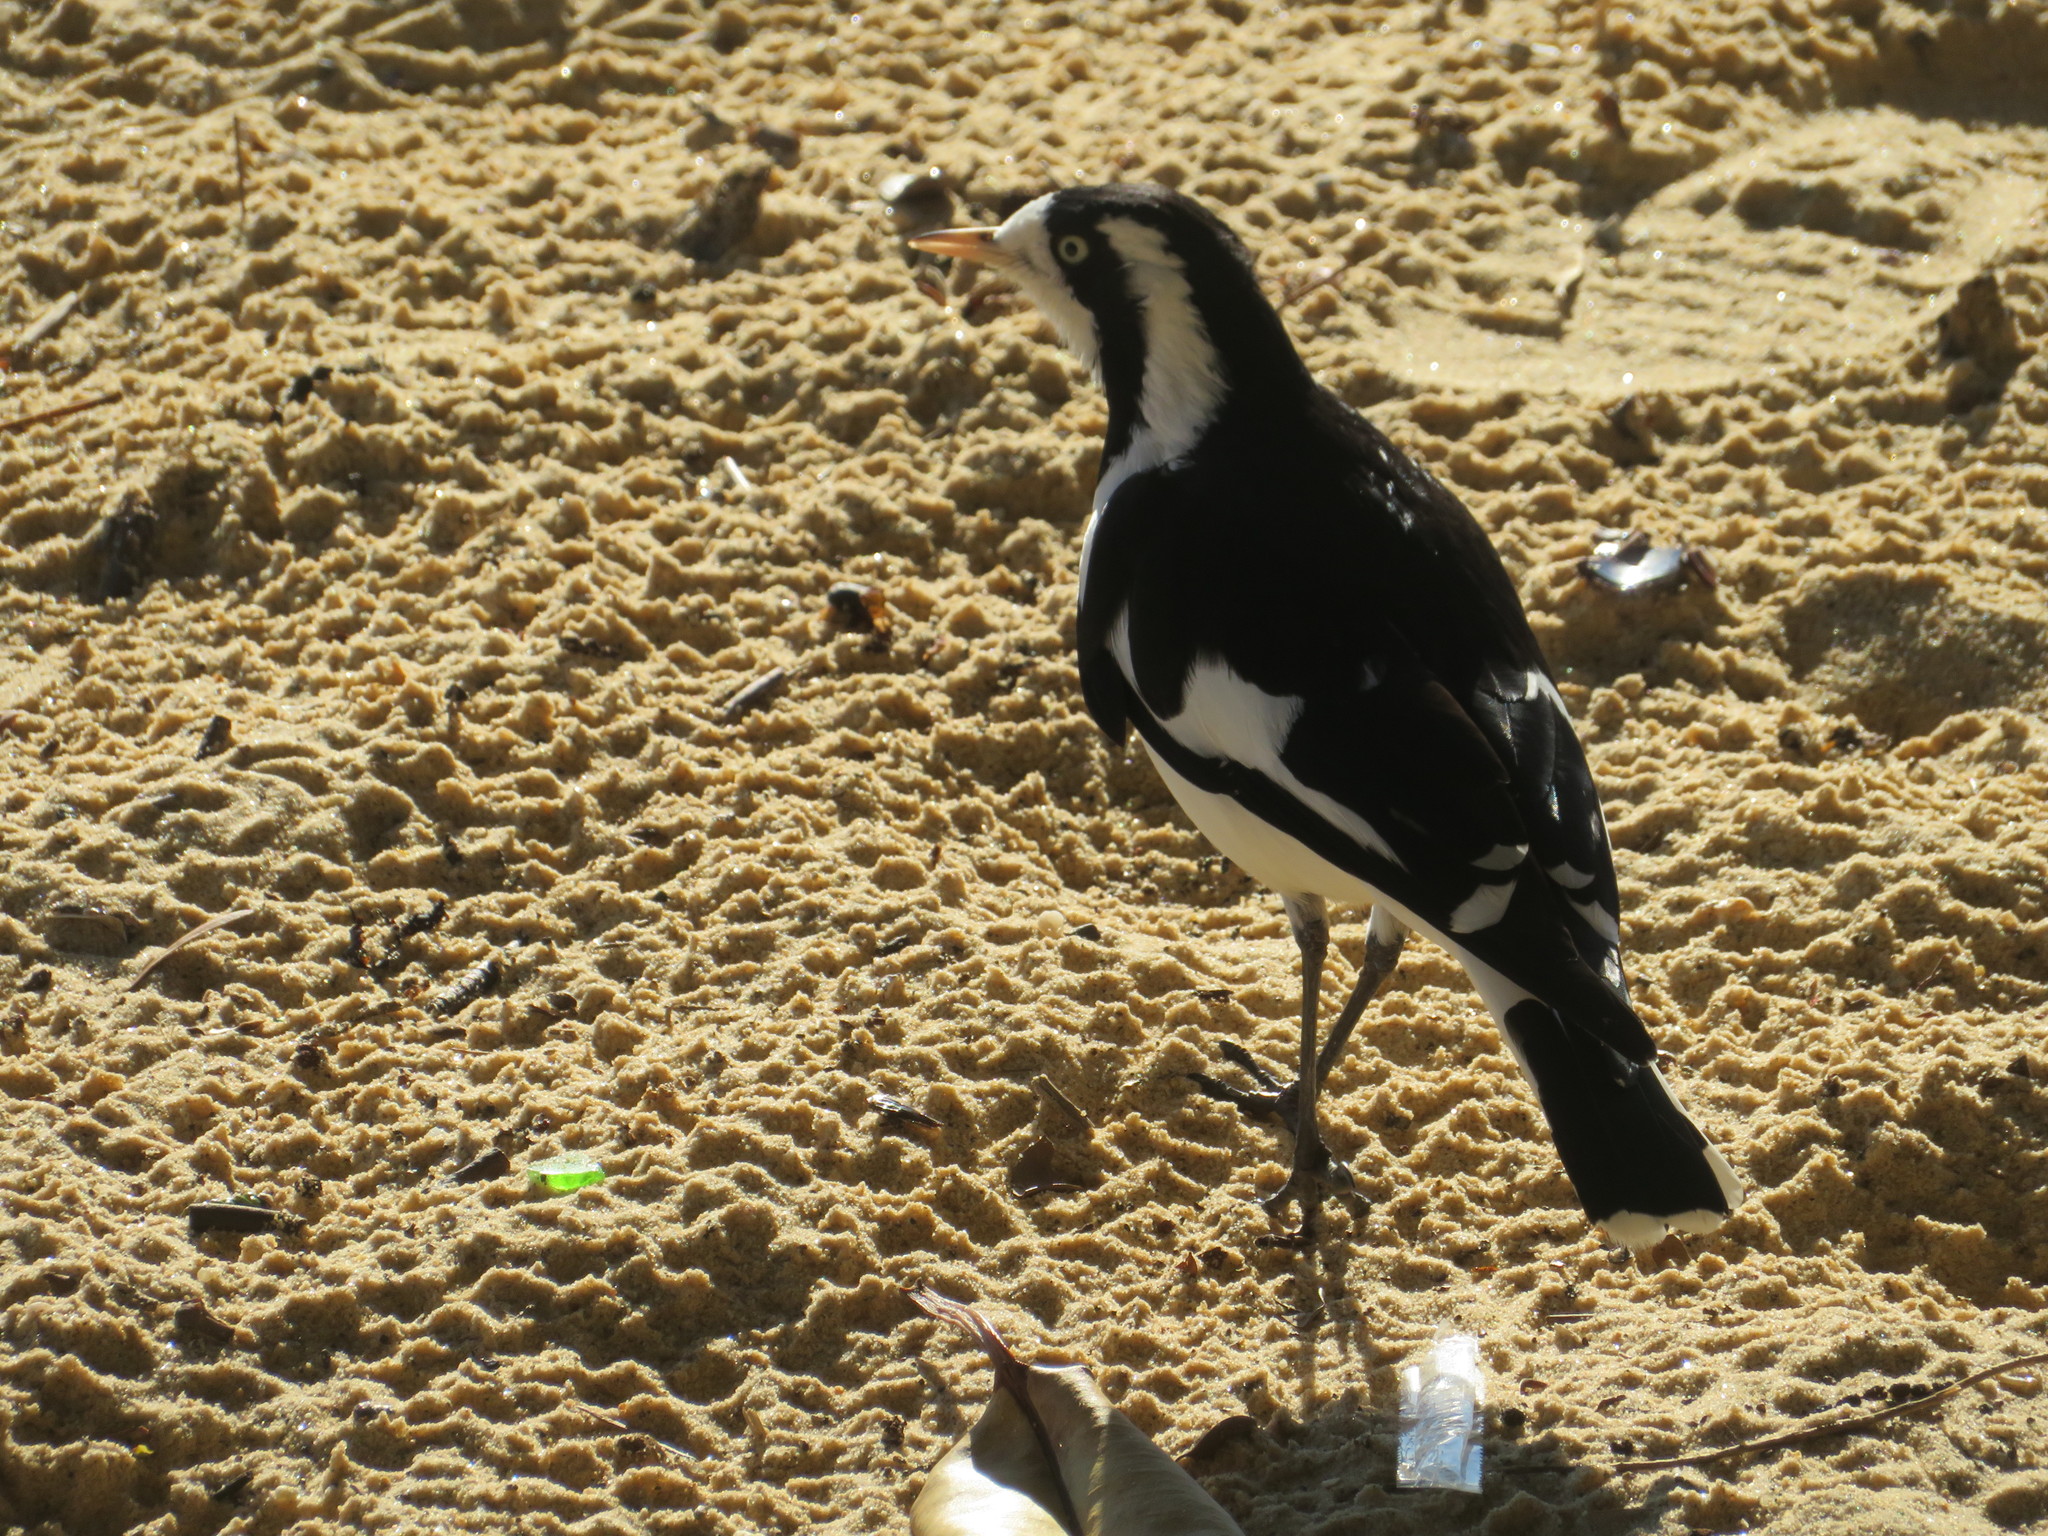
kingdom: Animalia
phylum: Chordata
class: Aves
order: Passeriformes
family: Monarchidae
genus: Grallina
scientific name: Grallina cyanoleuca
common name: Magpie-lark
